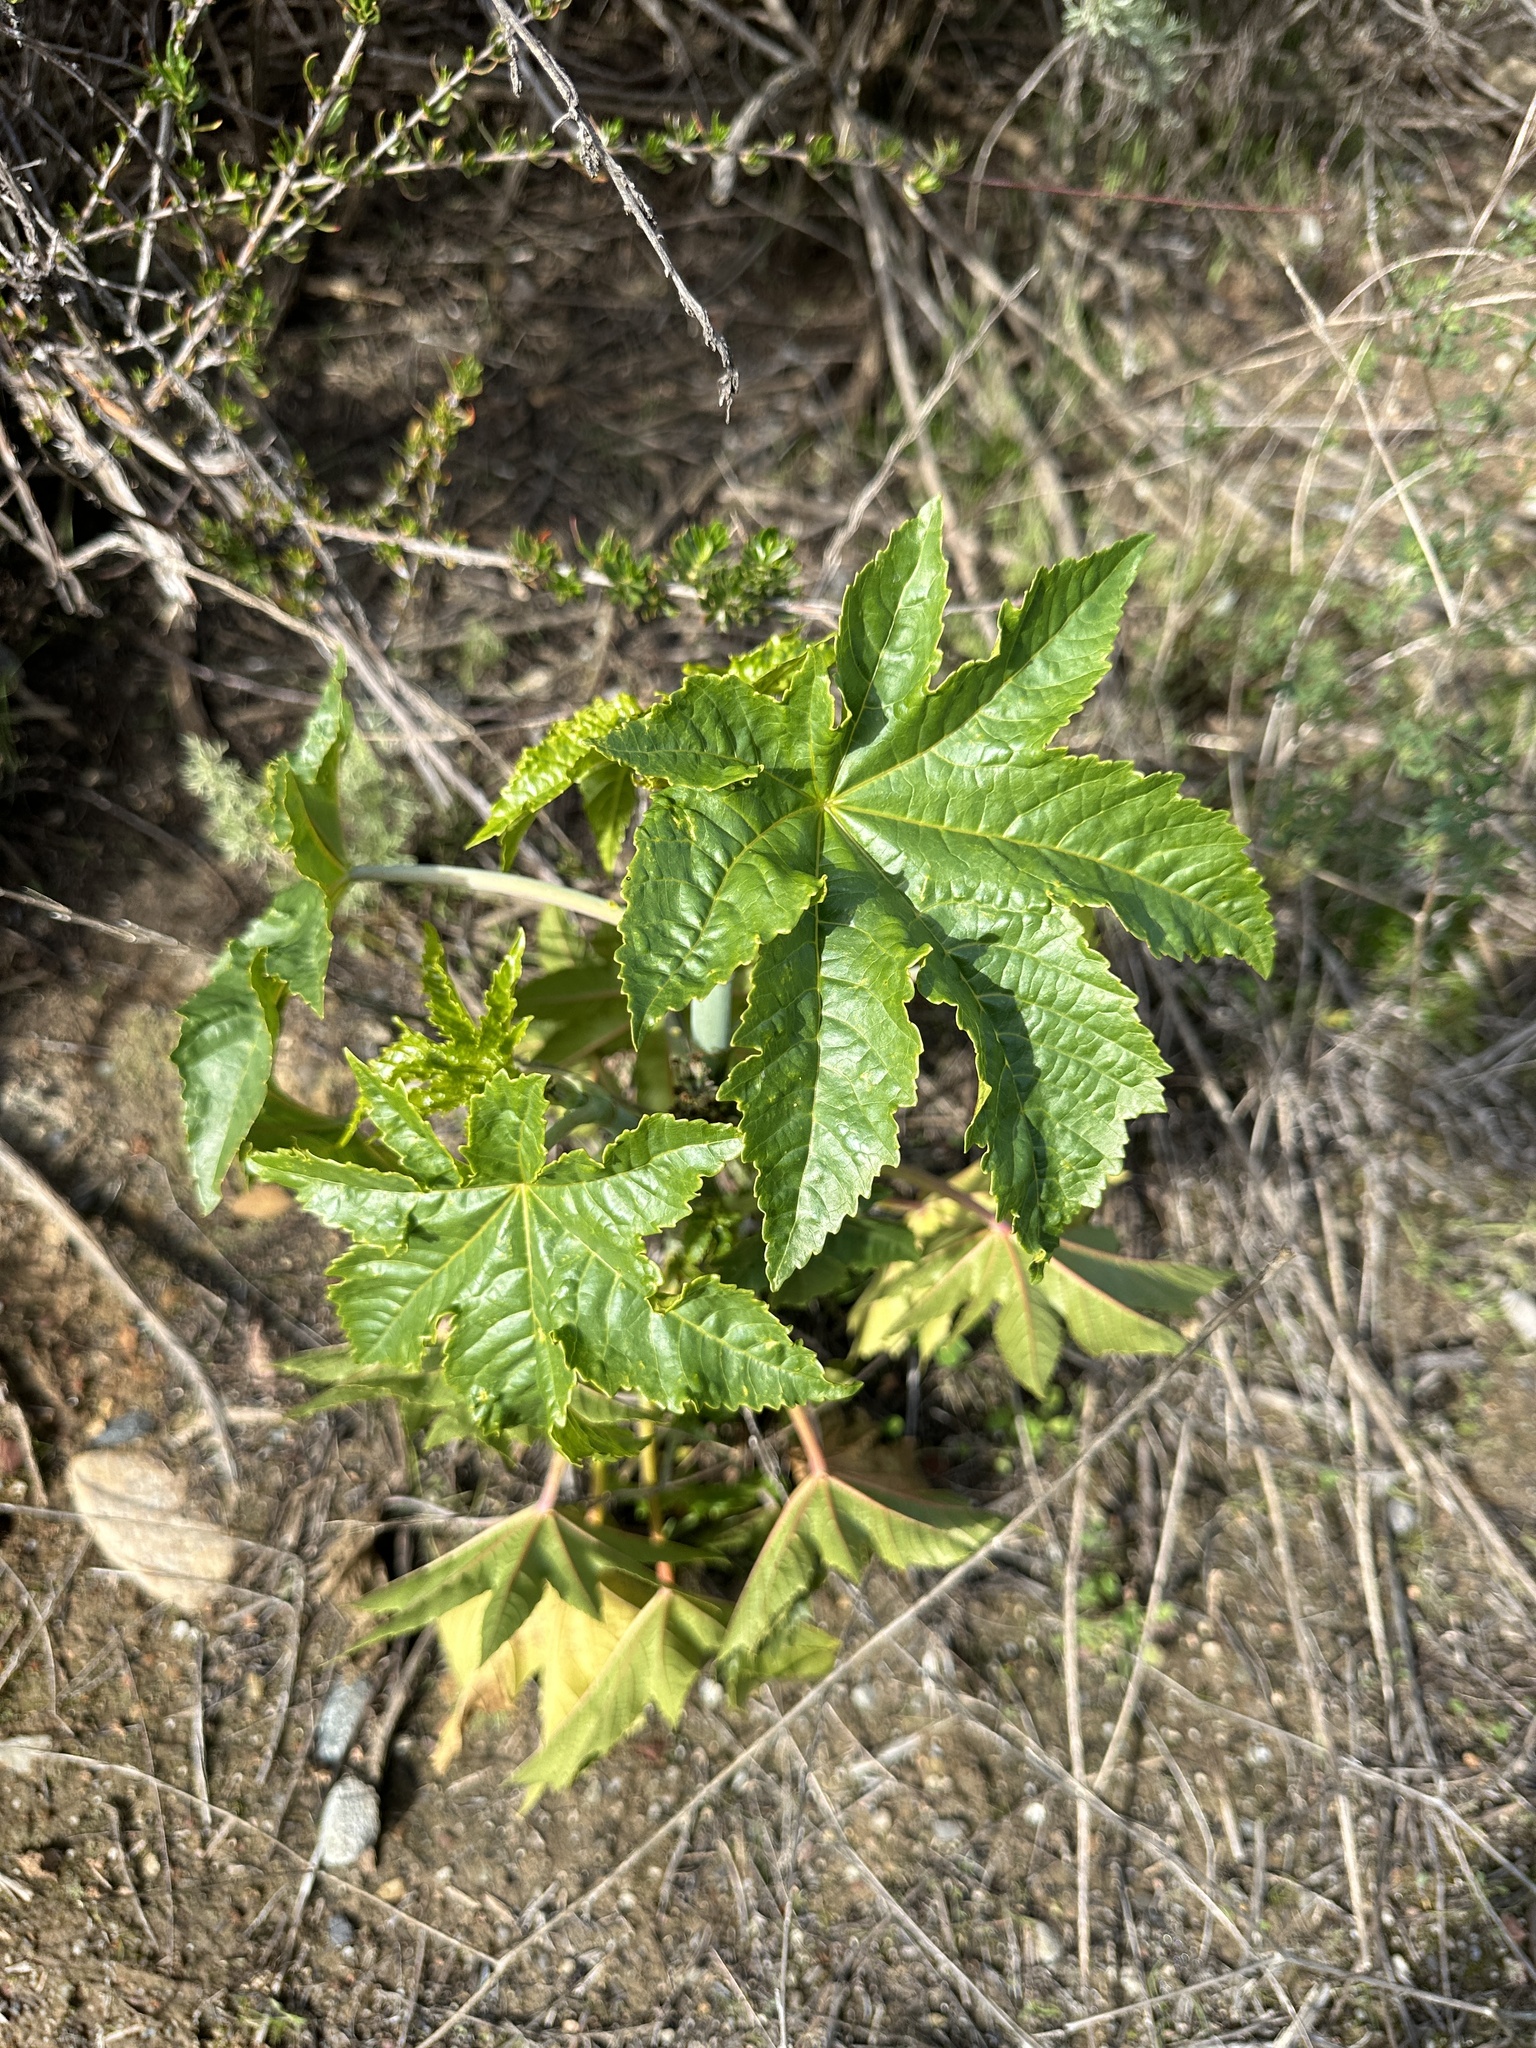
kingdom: Plantae
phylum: Tracheophyta
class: Magnoliopsida
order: Malpighiales
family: Euphorbiaceae
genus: Ricinus
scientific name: Ricinus communis
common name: Castor-oil-plant
